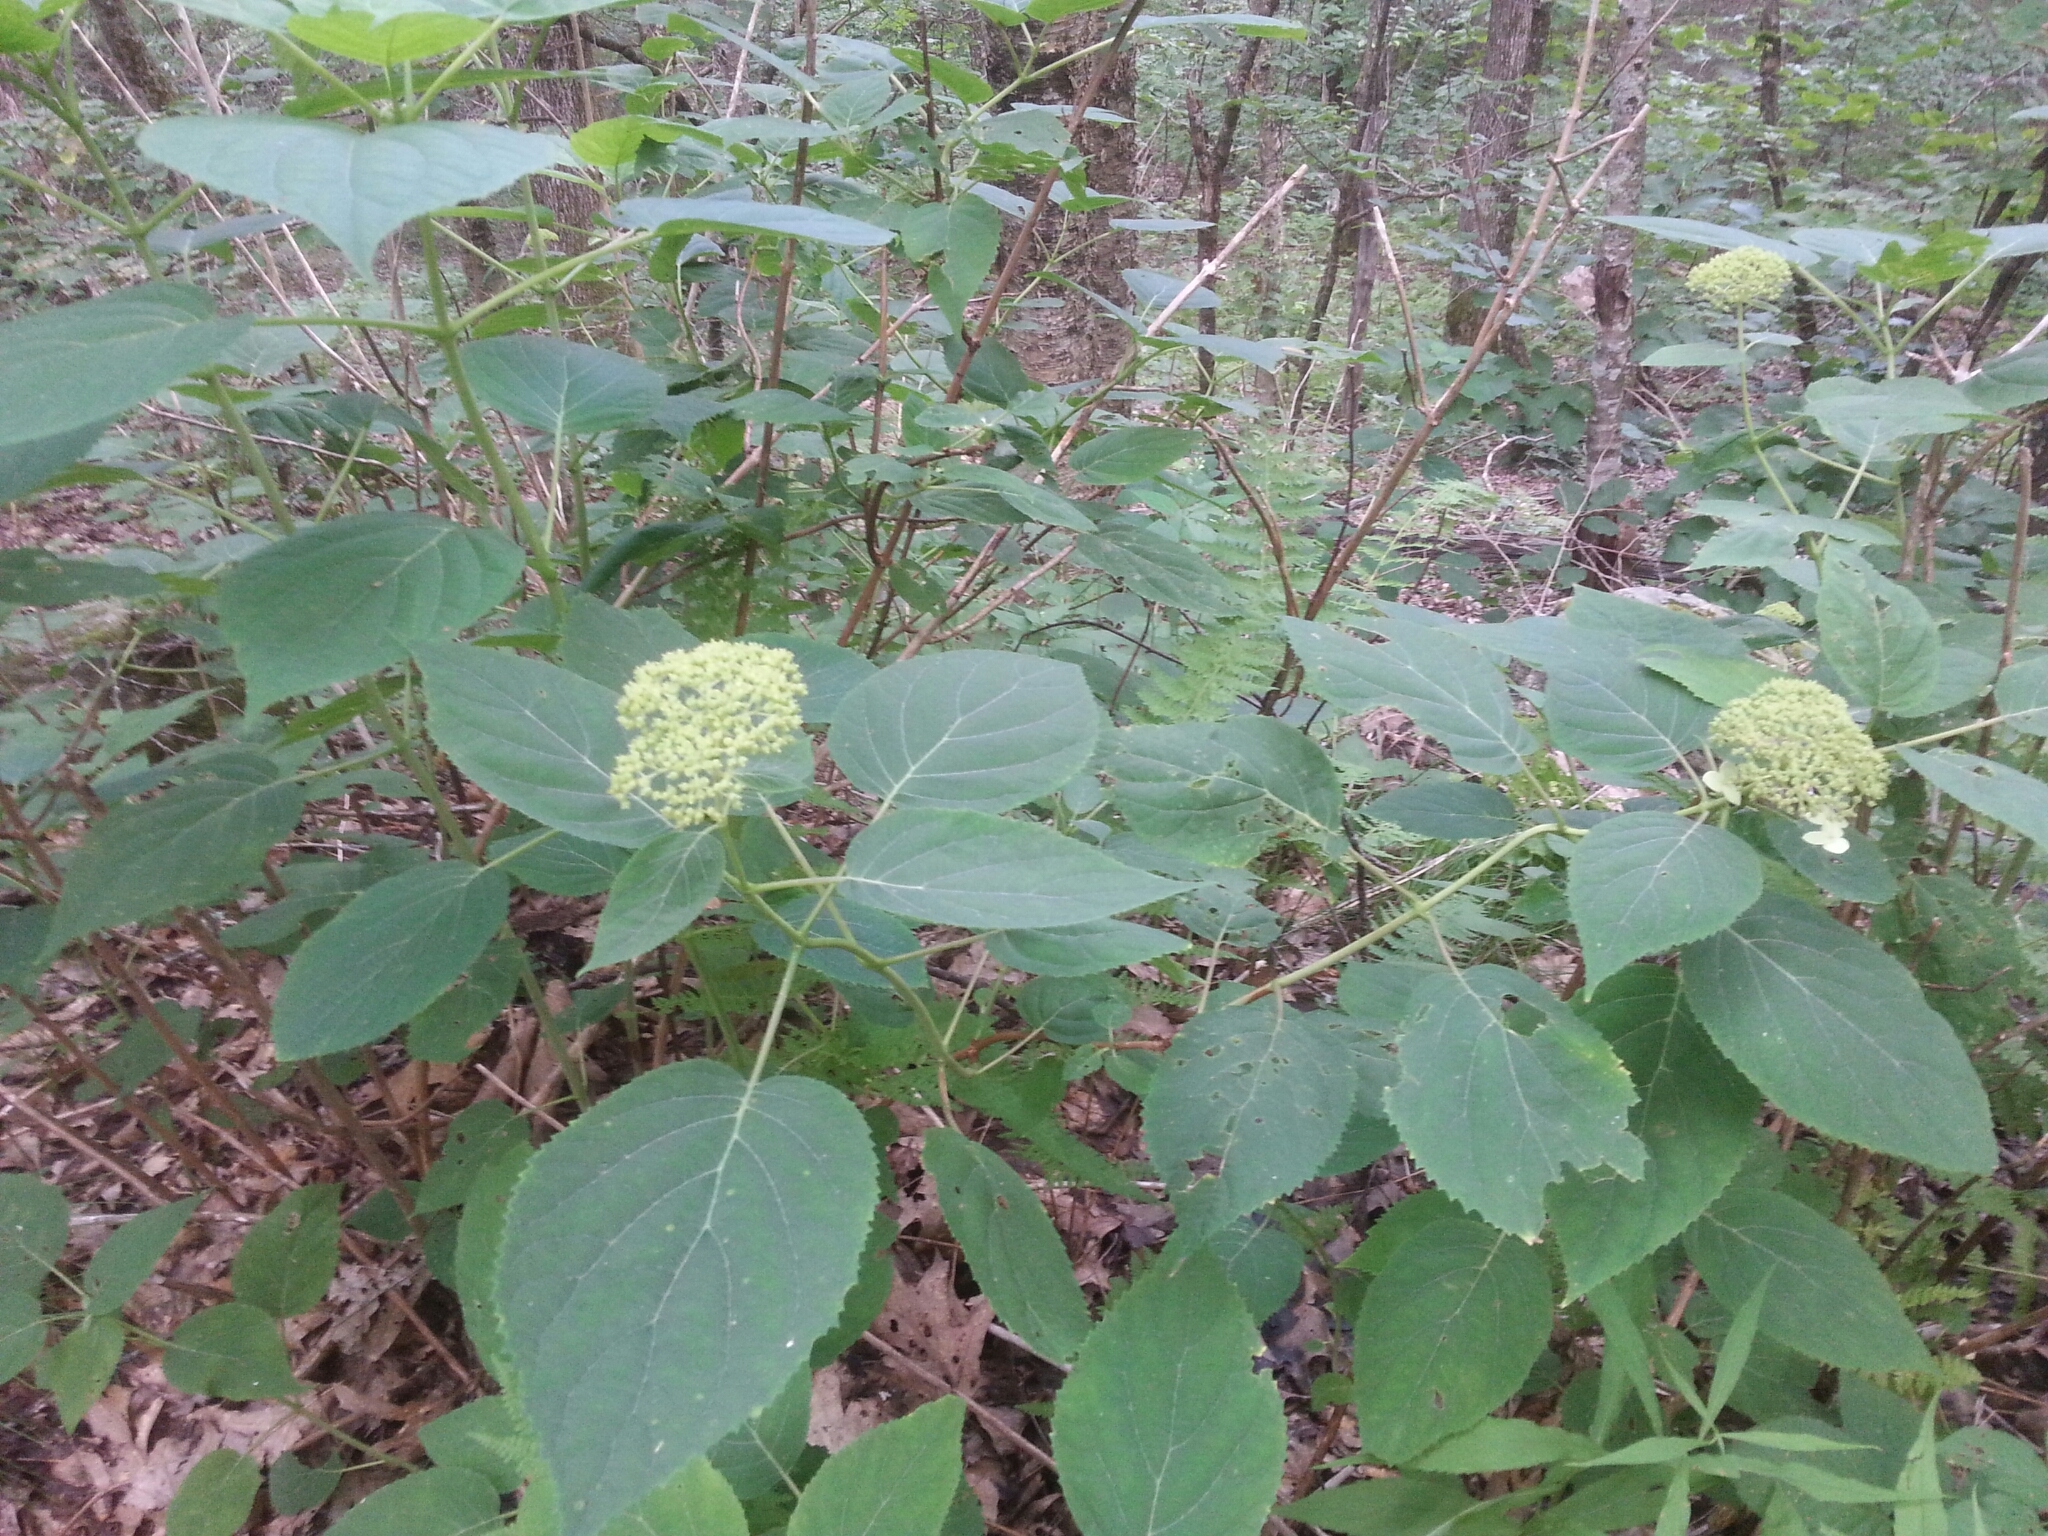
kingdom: Plantae
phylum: Tracheophyta
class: Magnoliopsida
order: Cornales
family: Hydrangeaceae
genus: Hydrangea
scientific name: Hydrangea arborescens
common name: Sevenbark
